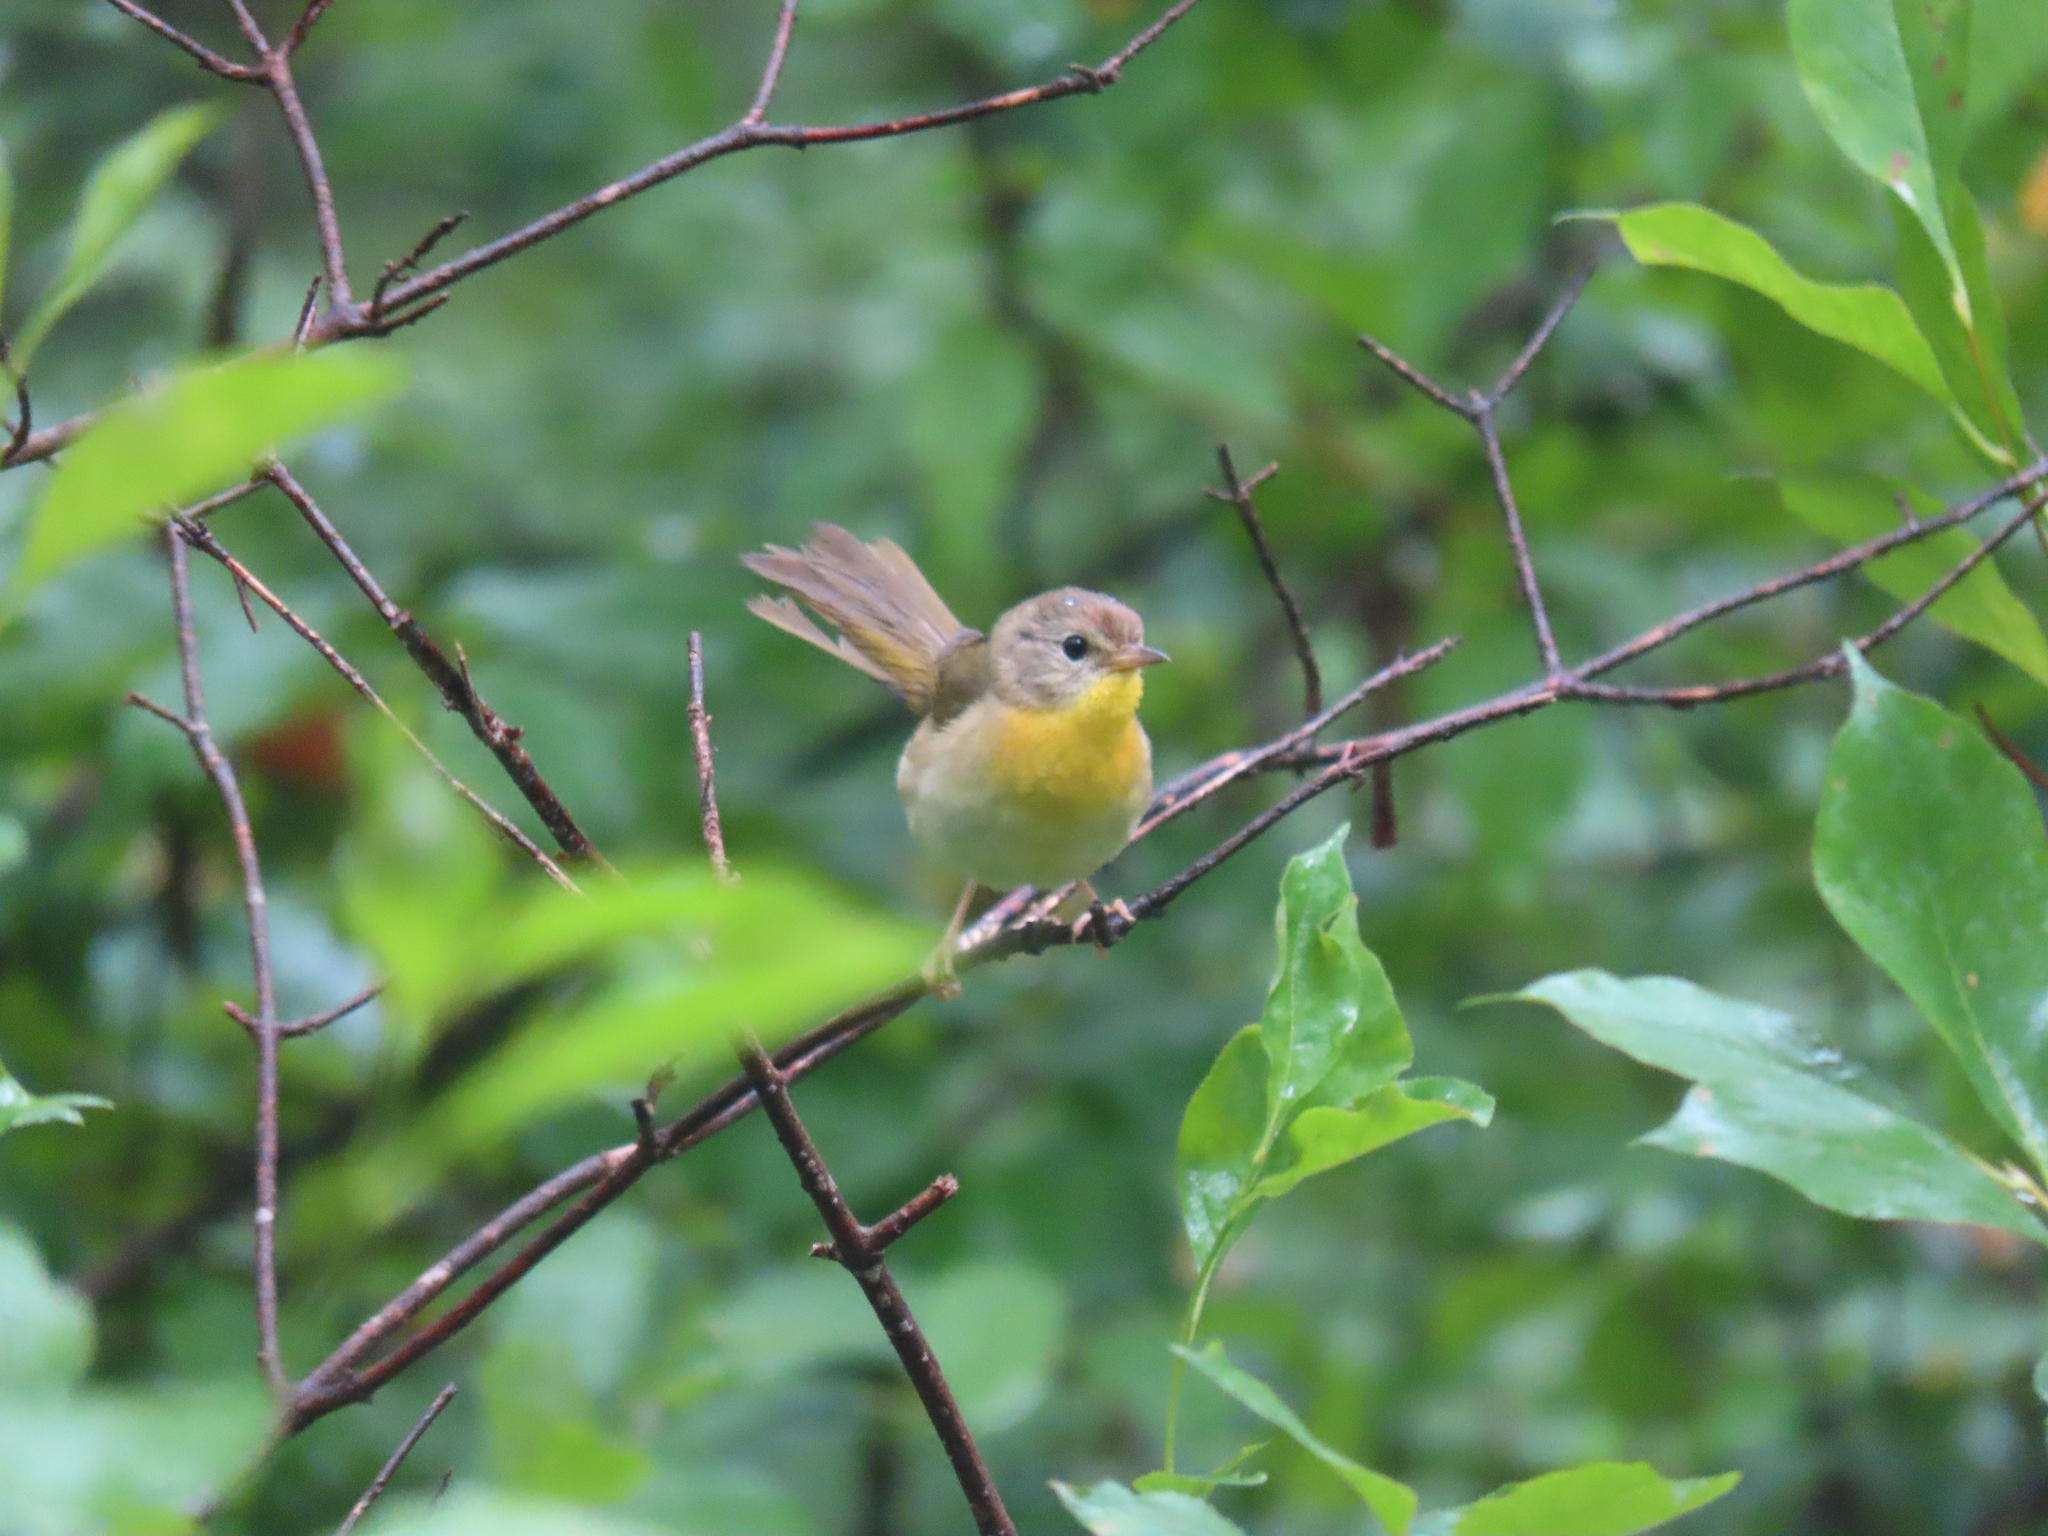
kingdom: Animalia
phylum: Chordata
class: Aves
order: Passeriformes
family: Parulidae
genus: Geothlypis
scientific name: Geothlypis trichas
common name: Common yellowthroat
